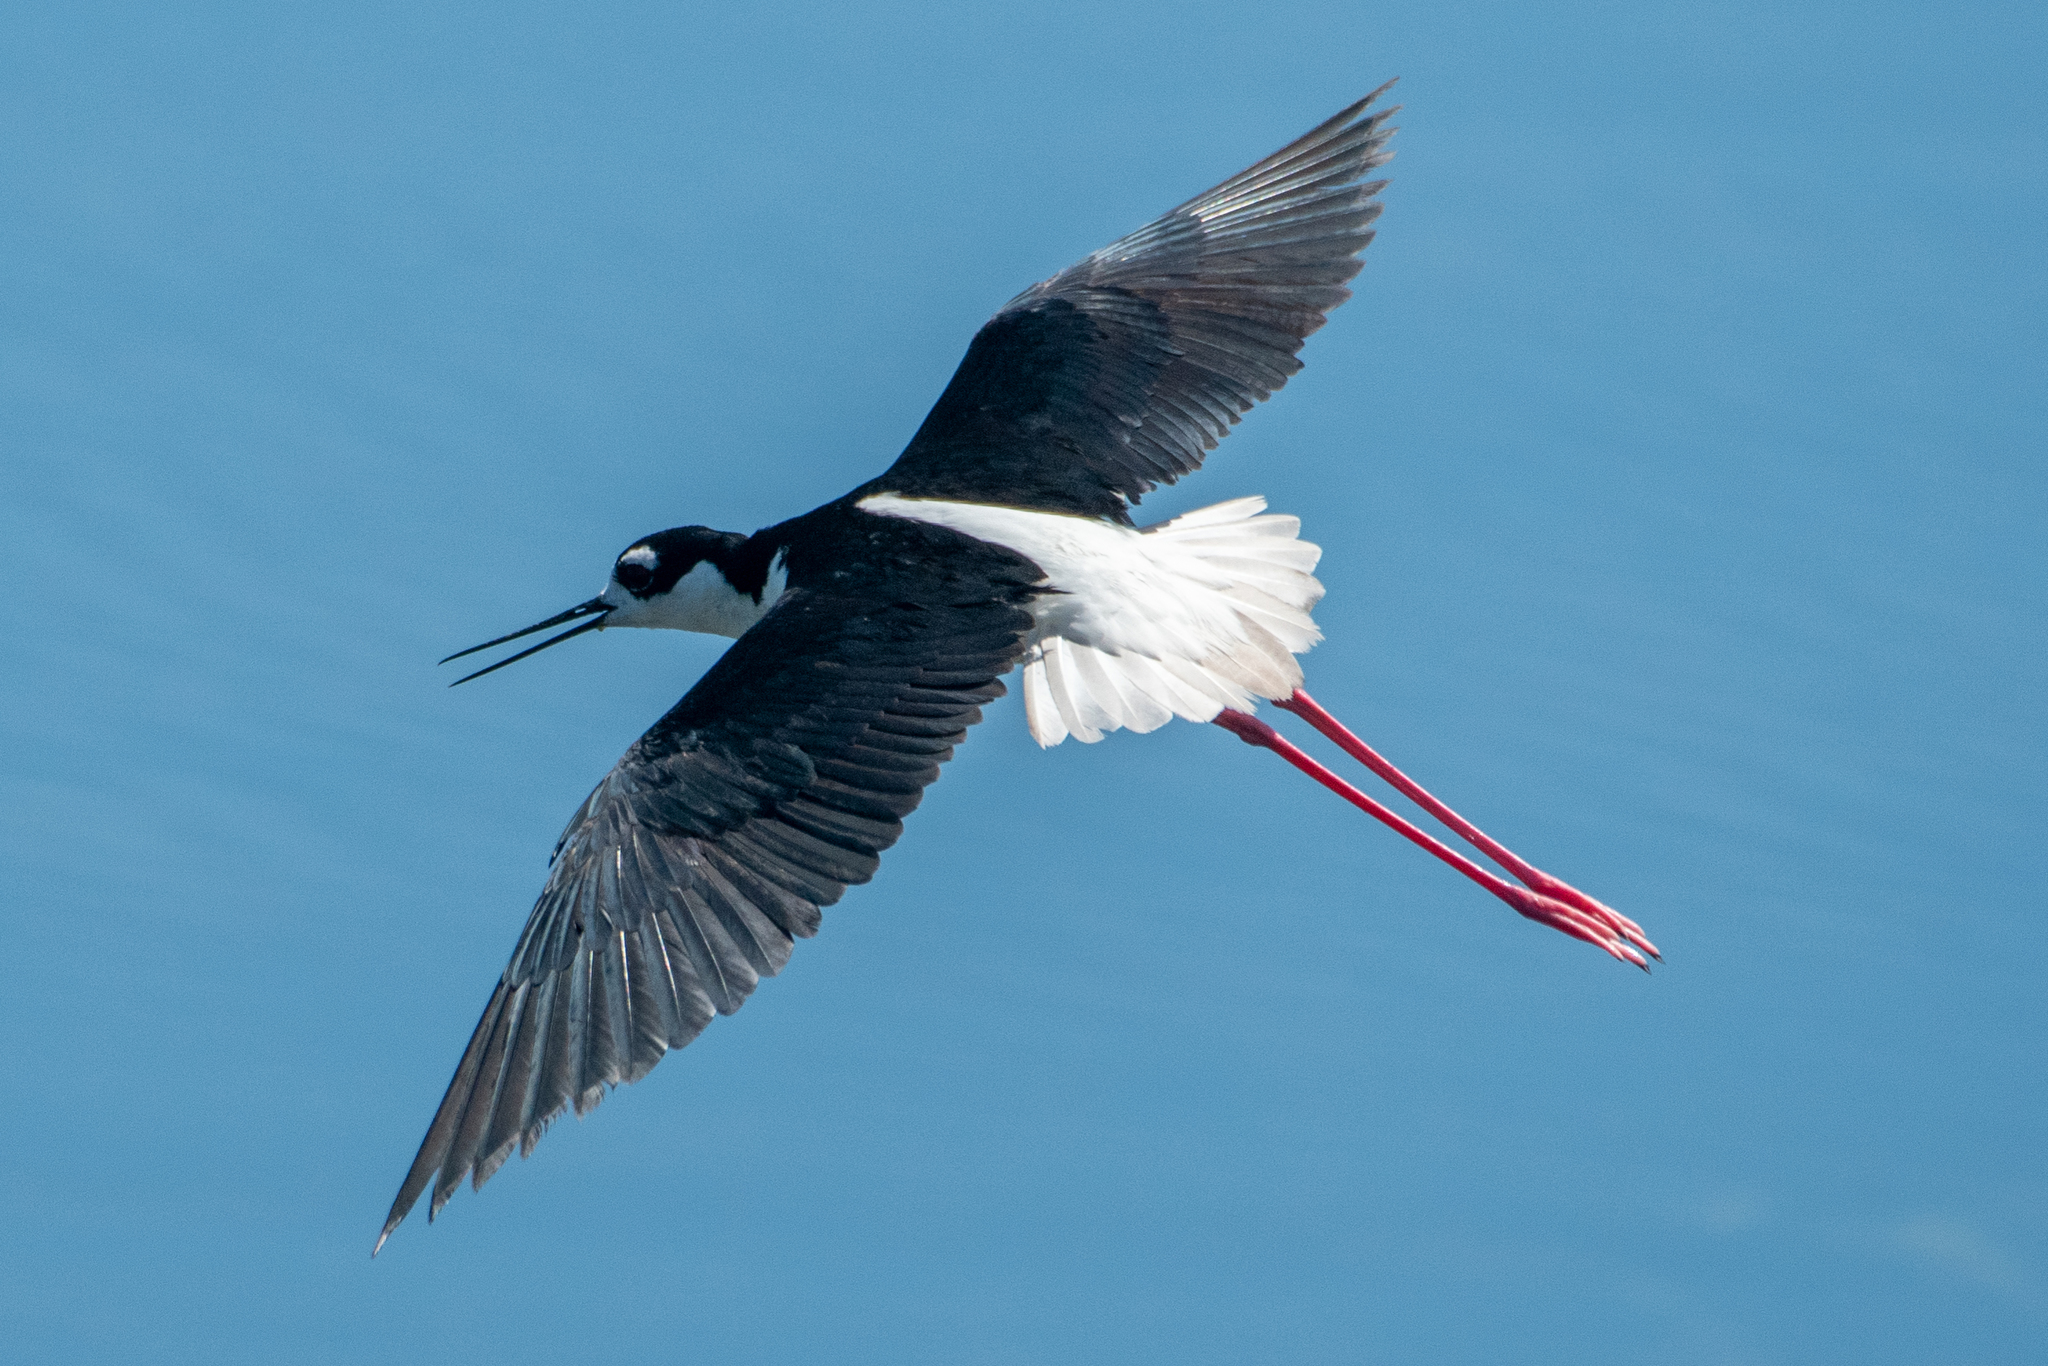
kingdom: Animalia
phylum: Chordata
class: Aves
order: Charadriiformes
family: Recurvirostridae
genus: Himantopus
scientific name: Himantopus mexicanus
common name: Black-necked stilt
